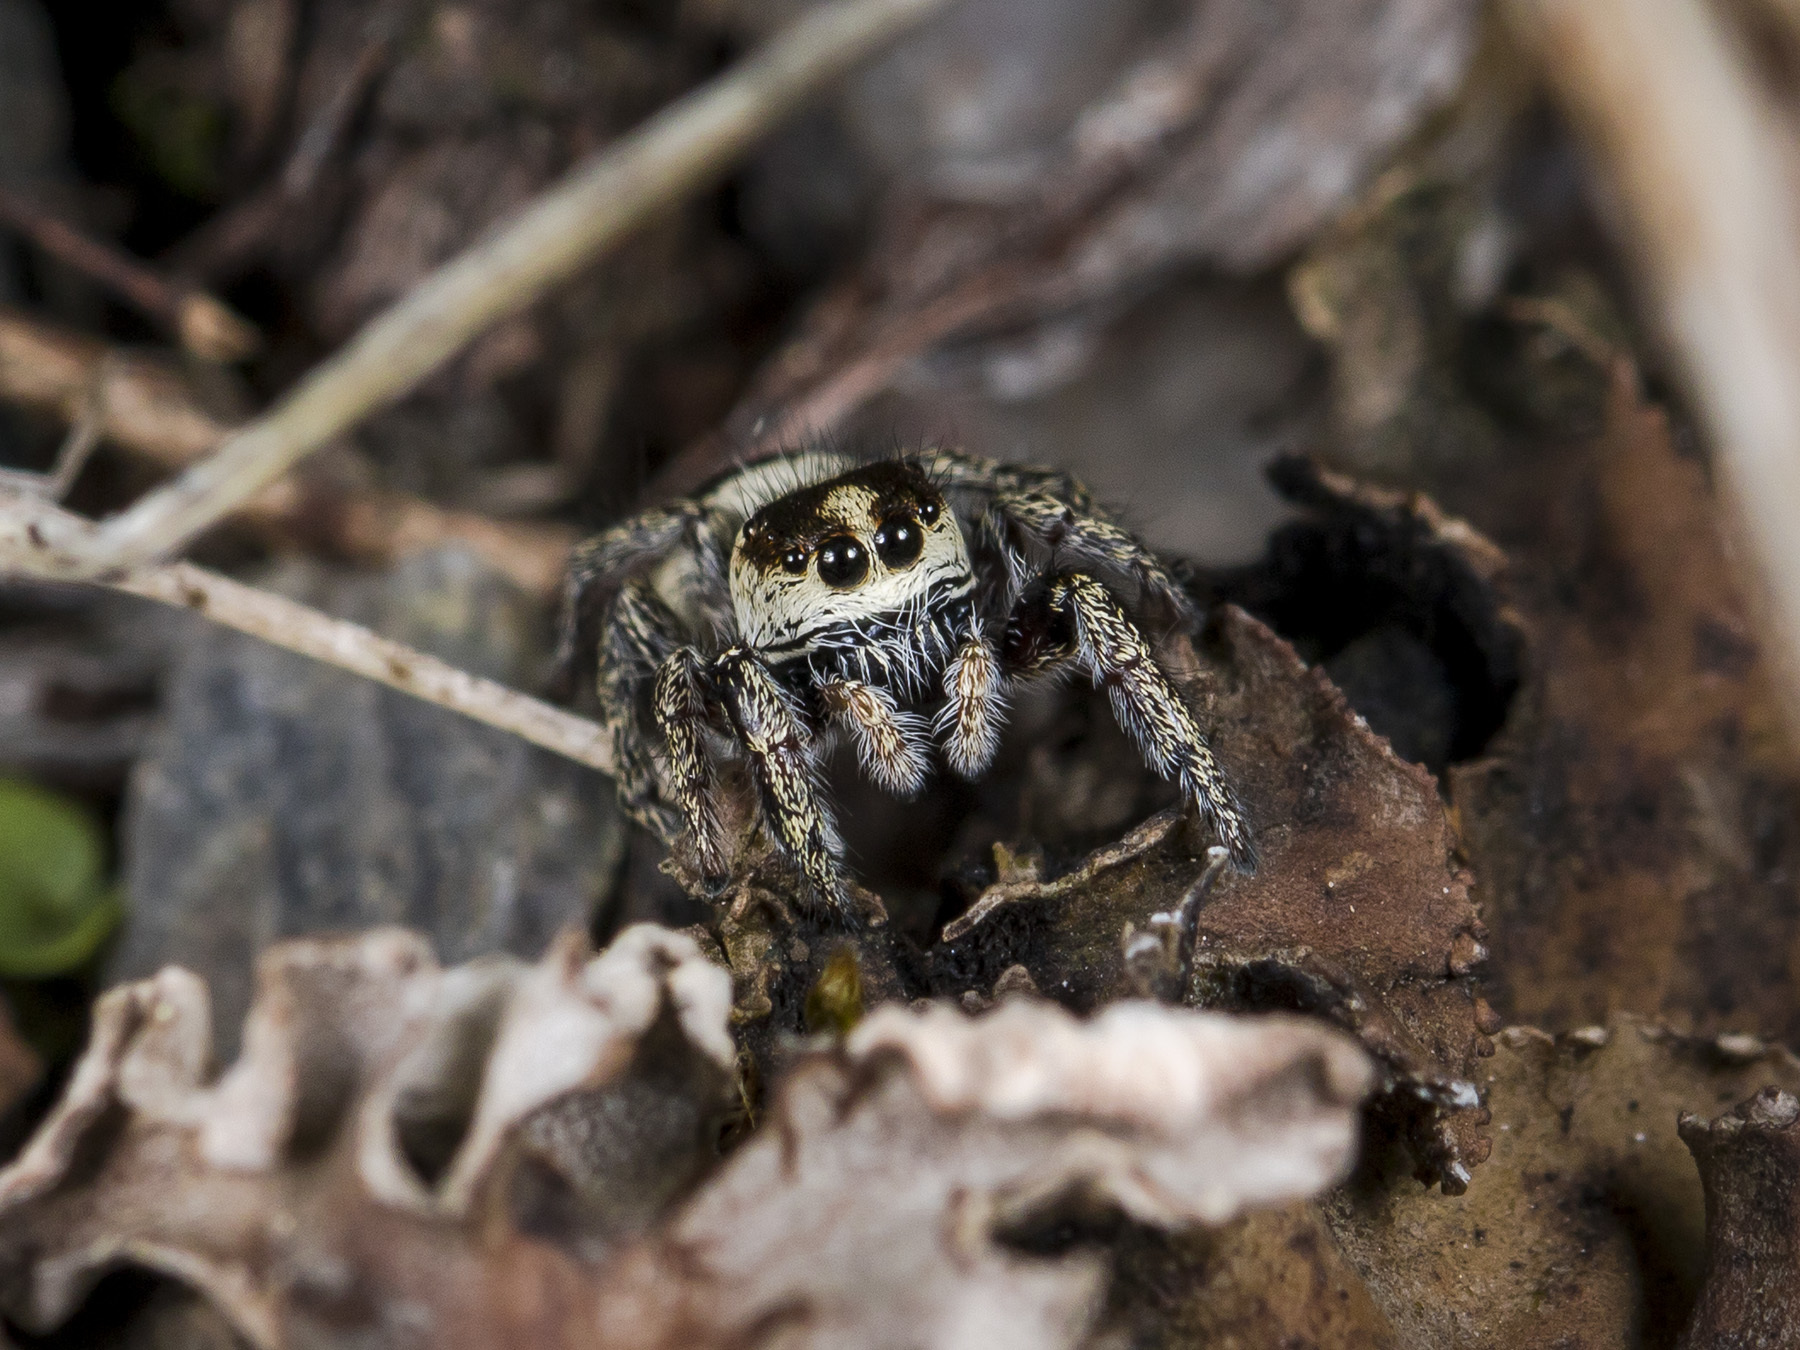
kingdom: Animalia
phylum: Arthropoda
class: Arachnida
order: Araneae
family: Salticidae
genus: Pellenes
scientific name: Pellenes allegrii
